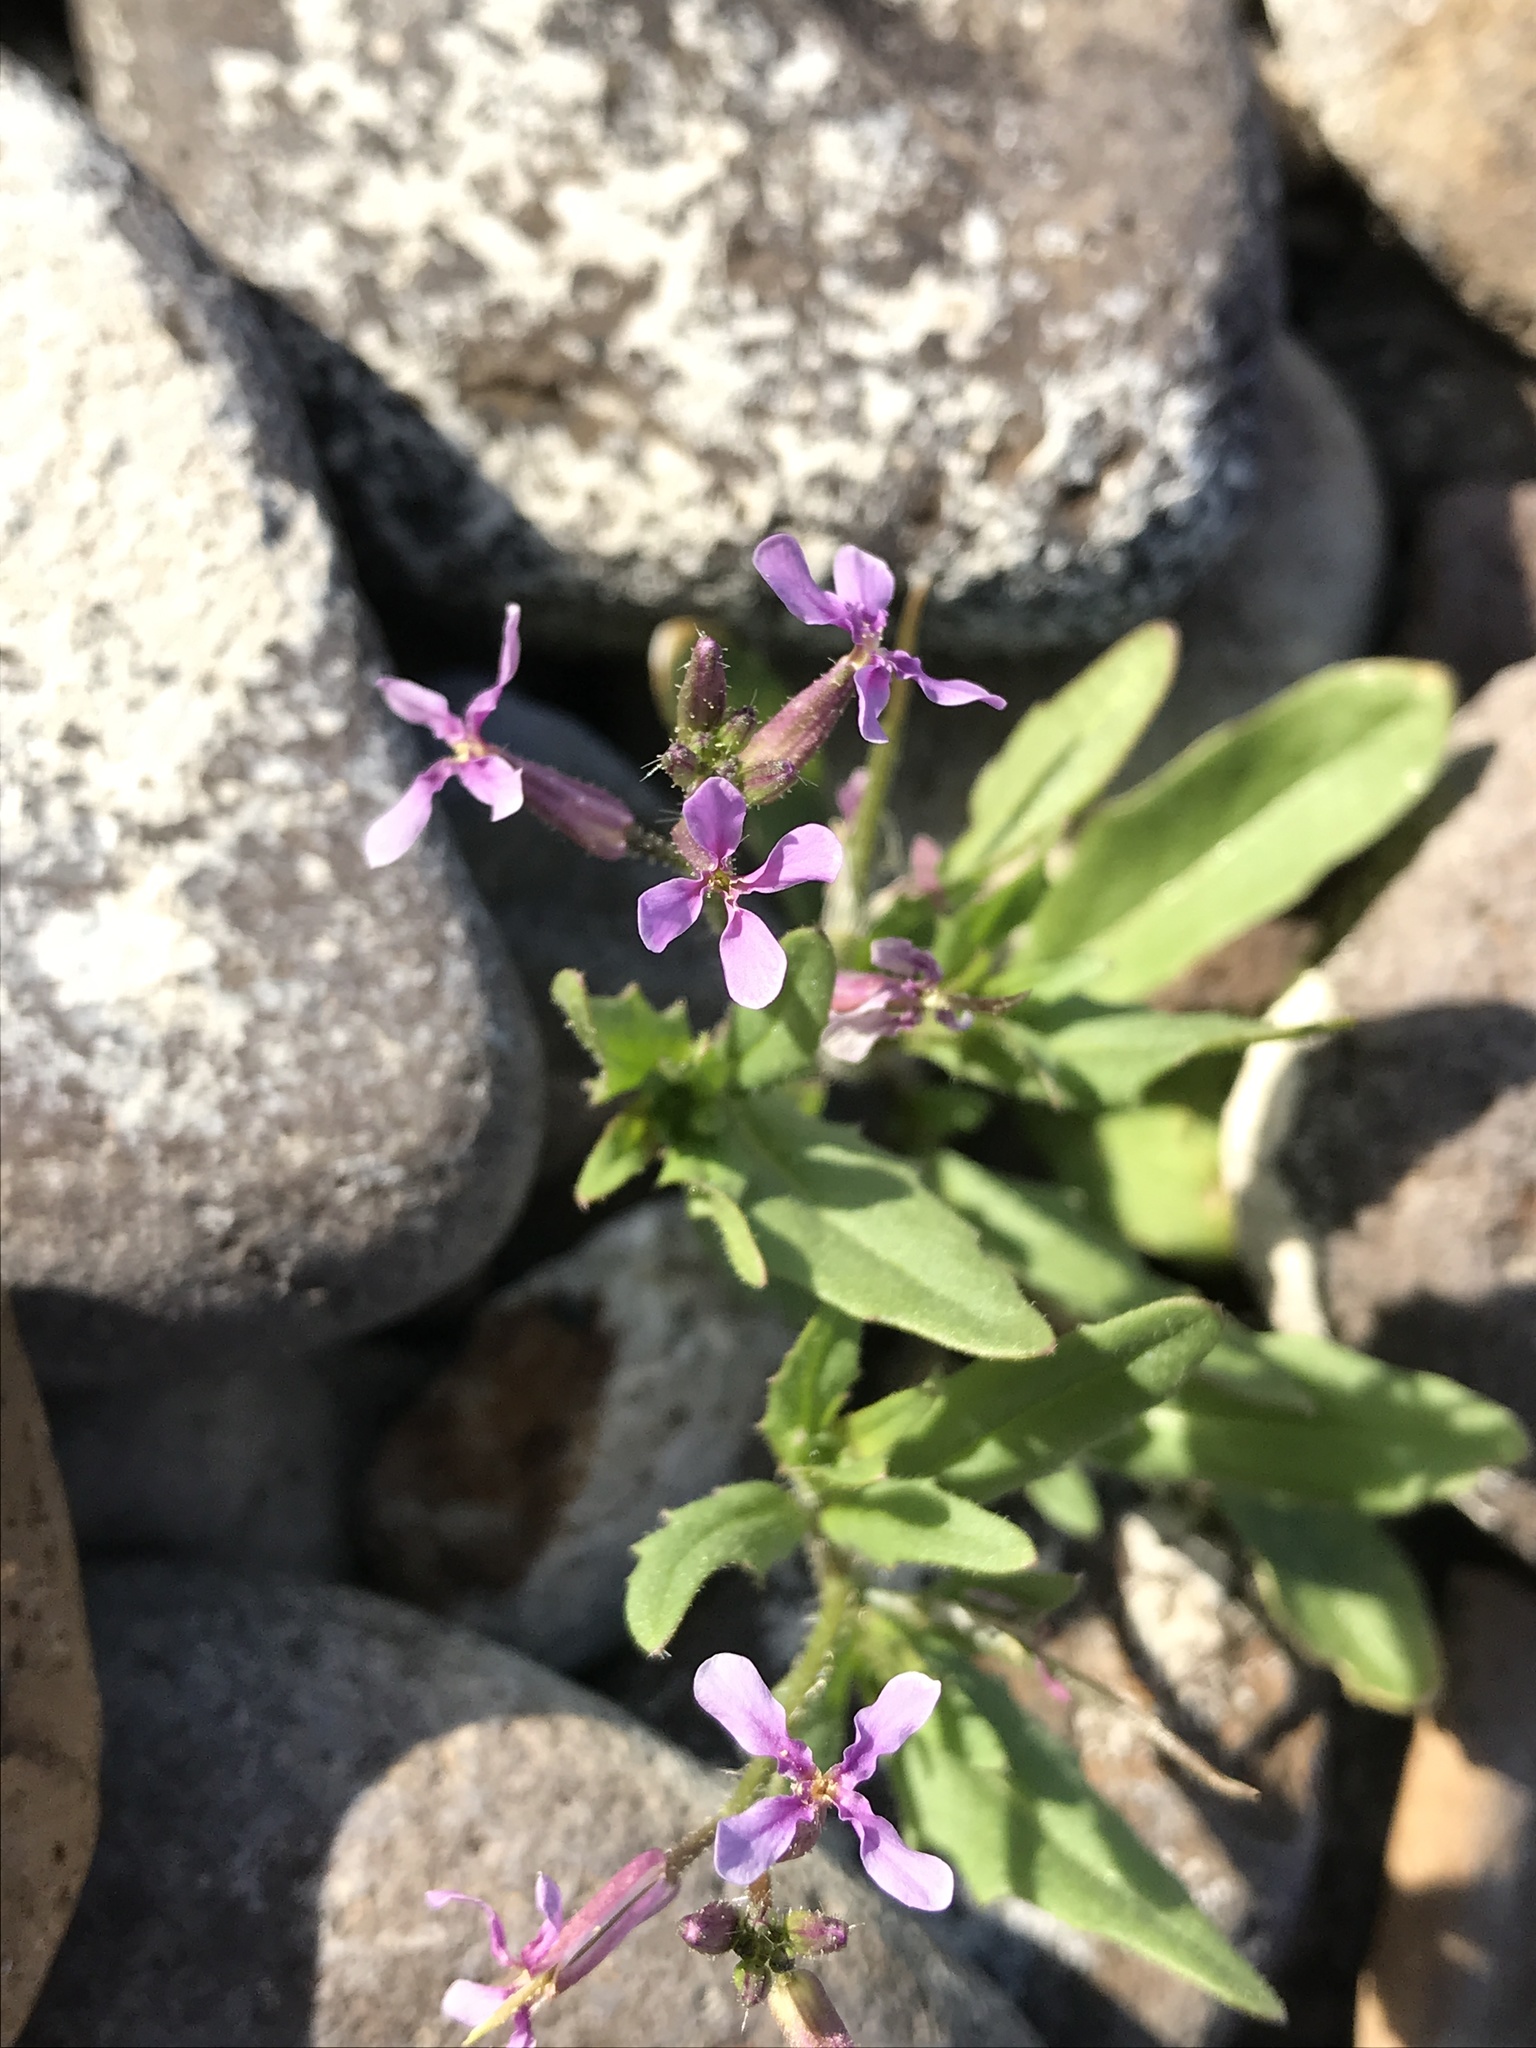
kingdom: Plantae
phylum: Tracheophyta
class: Magnoliopsida
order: Brassicales
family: Brassicaceae
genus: Chorispora
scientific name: Chorispora tenella
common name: Crossflower
